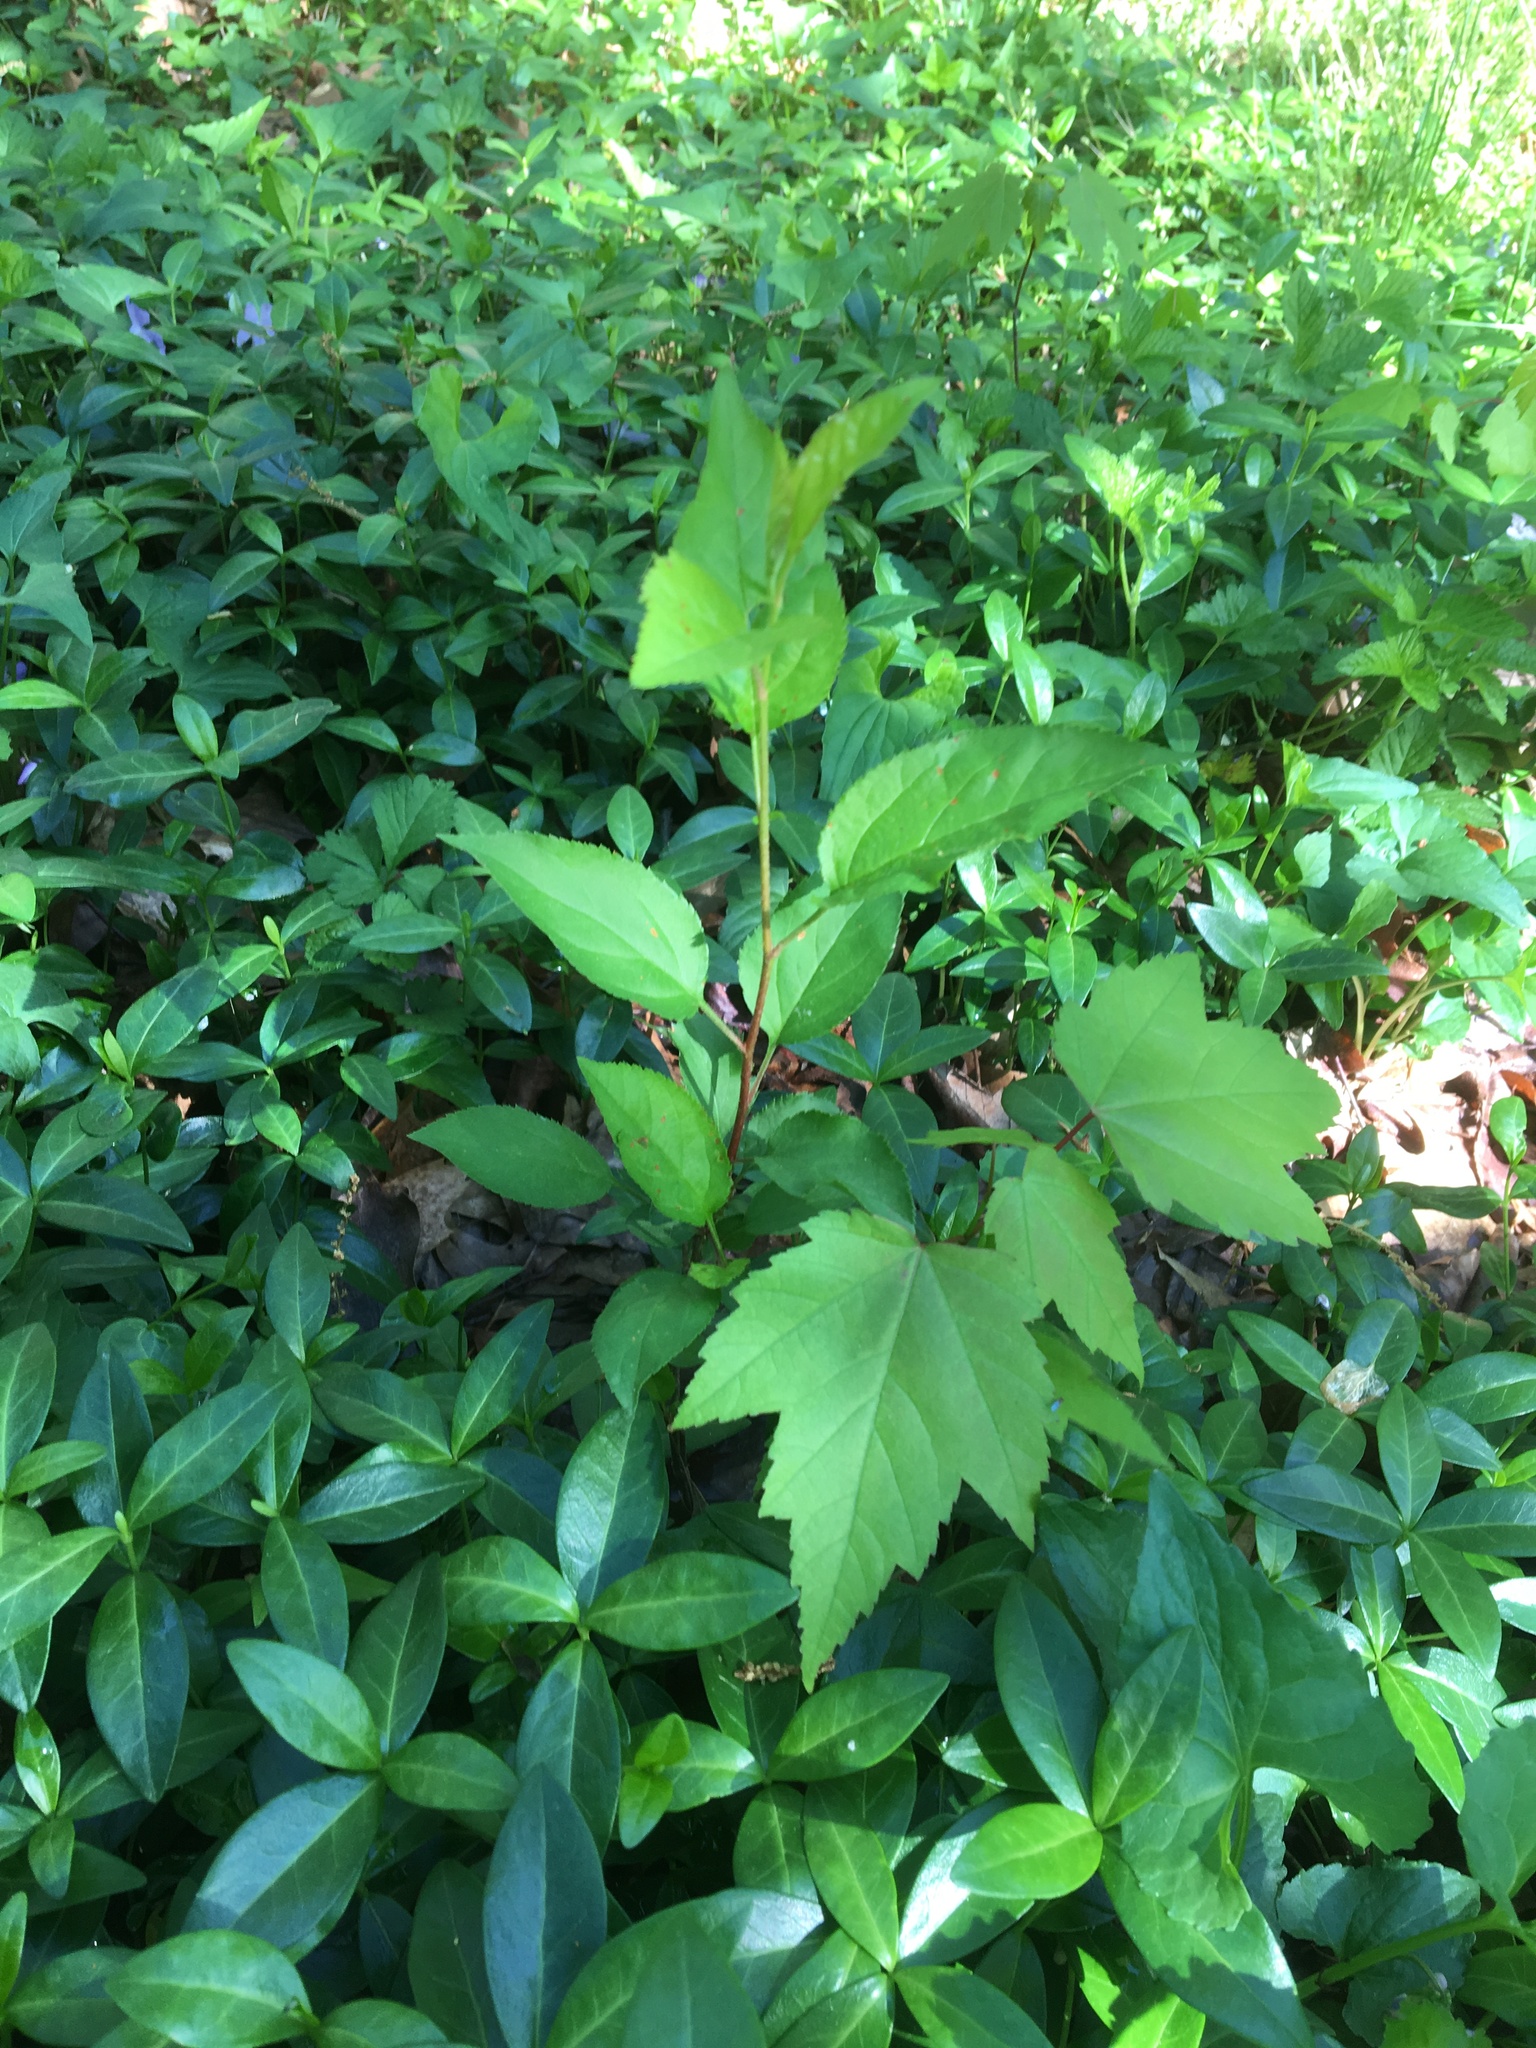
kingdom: Plantae
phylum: Tracheophyta
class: Magnoliopsida
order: Sapindales
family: Sapindaceae
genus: Acer
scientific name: Acer rubrum
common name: Red maple
